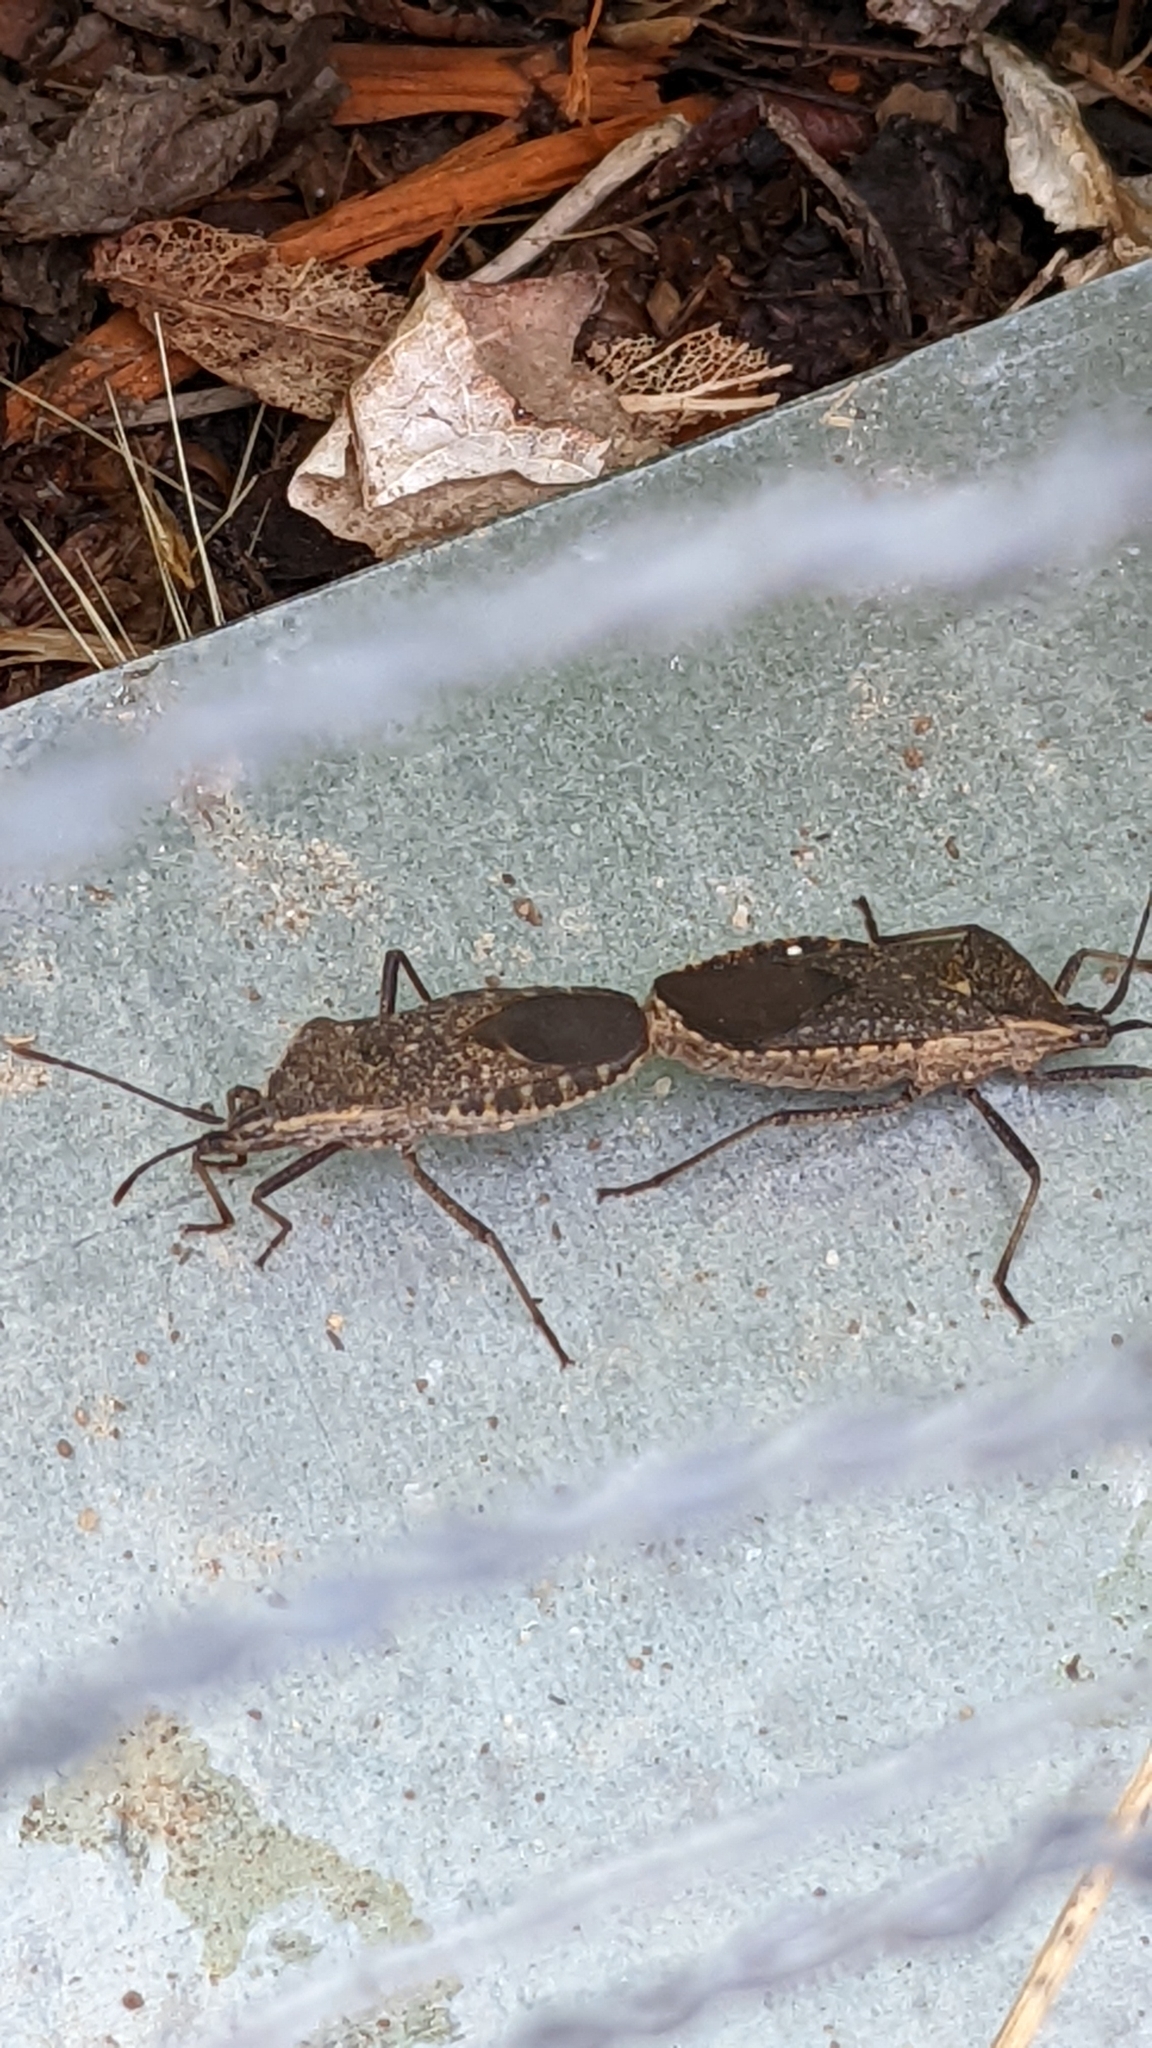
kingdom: Animalia
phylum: Arthropoda
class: Insecta
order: Hemiptera
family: Coreidae
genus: Anasa
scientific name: Anasa tristis
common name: Squash bug
